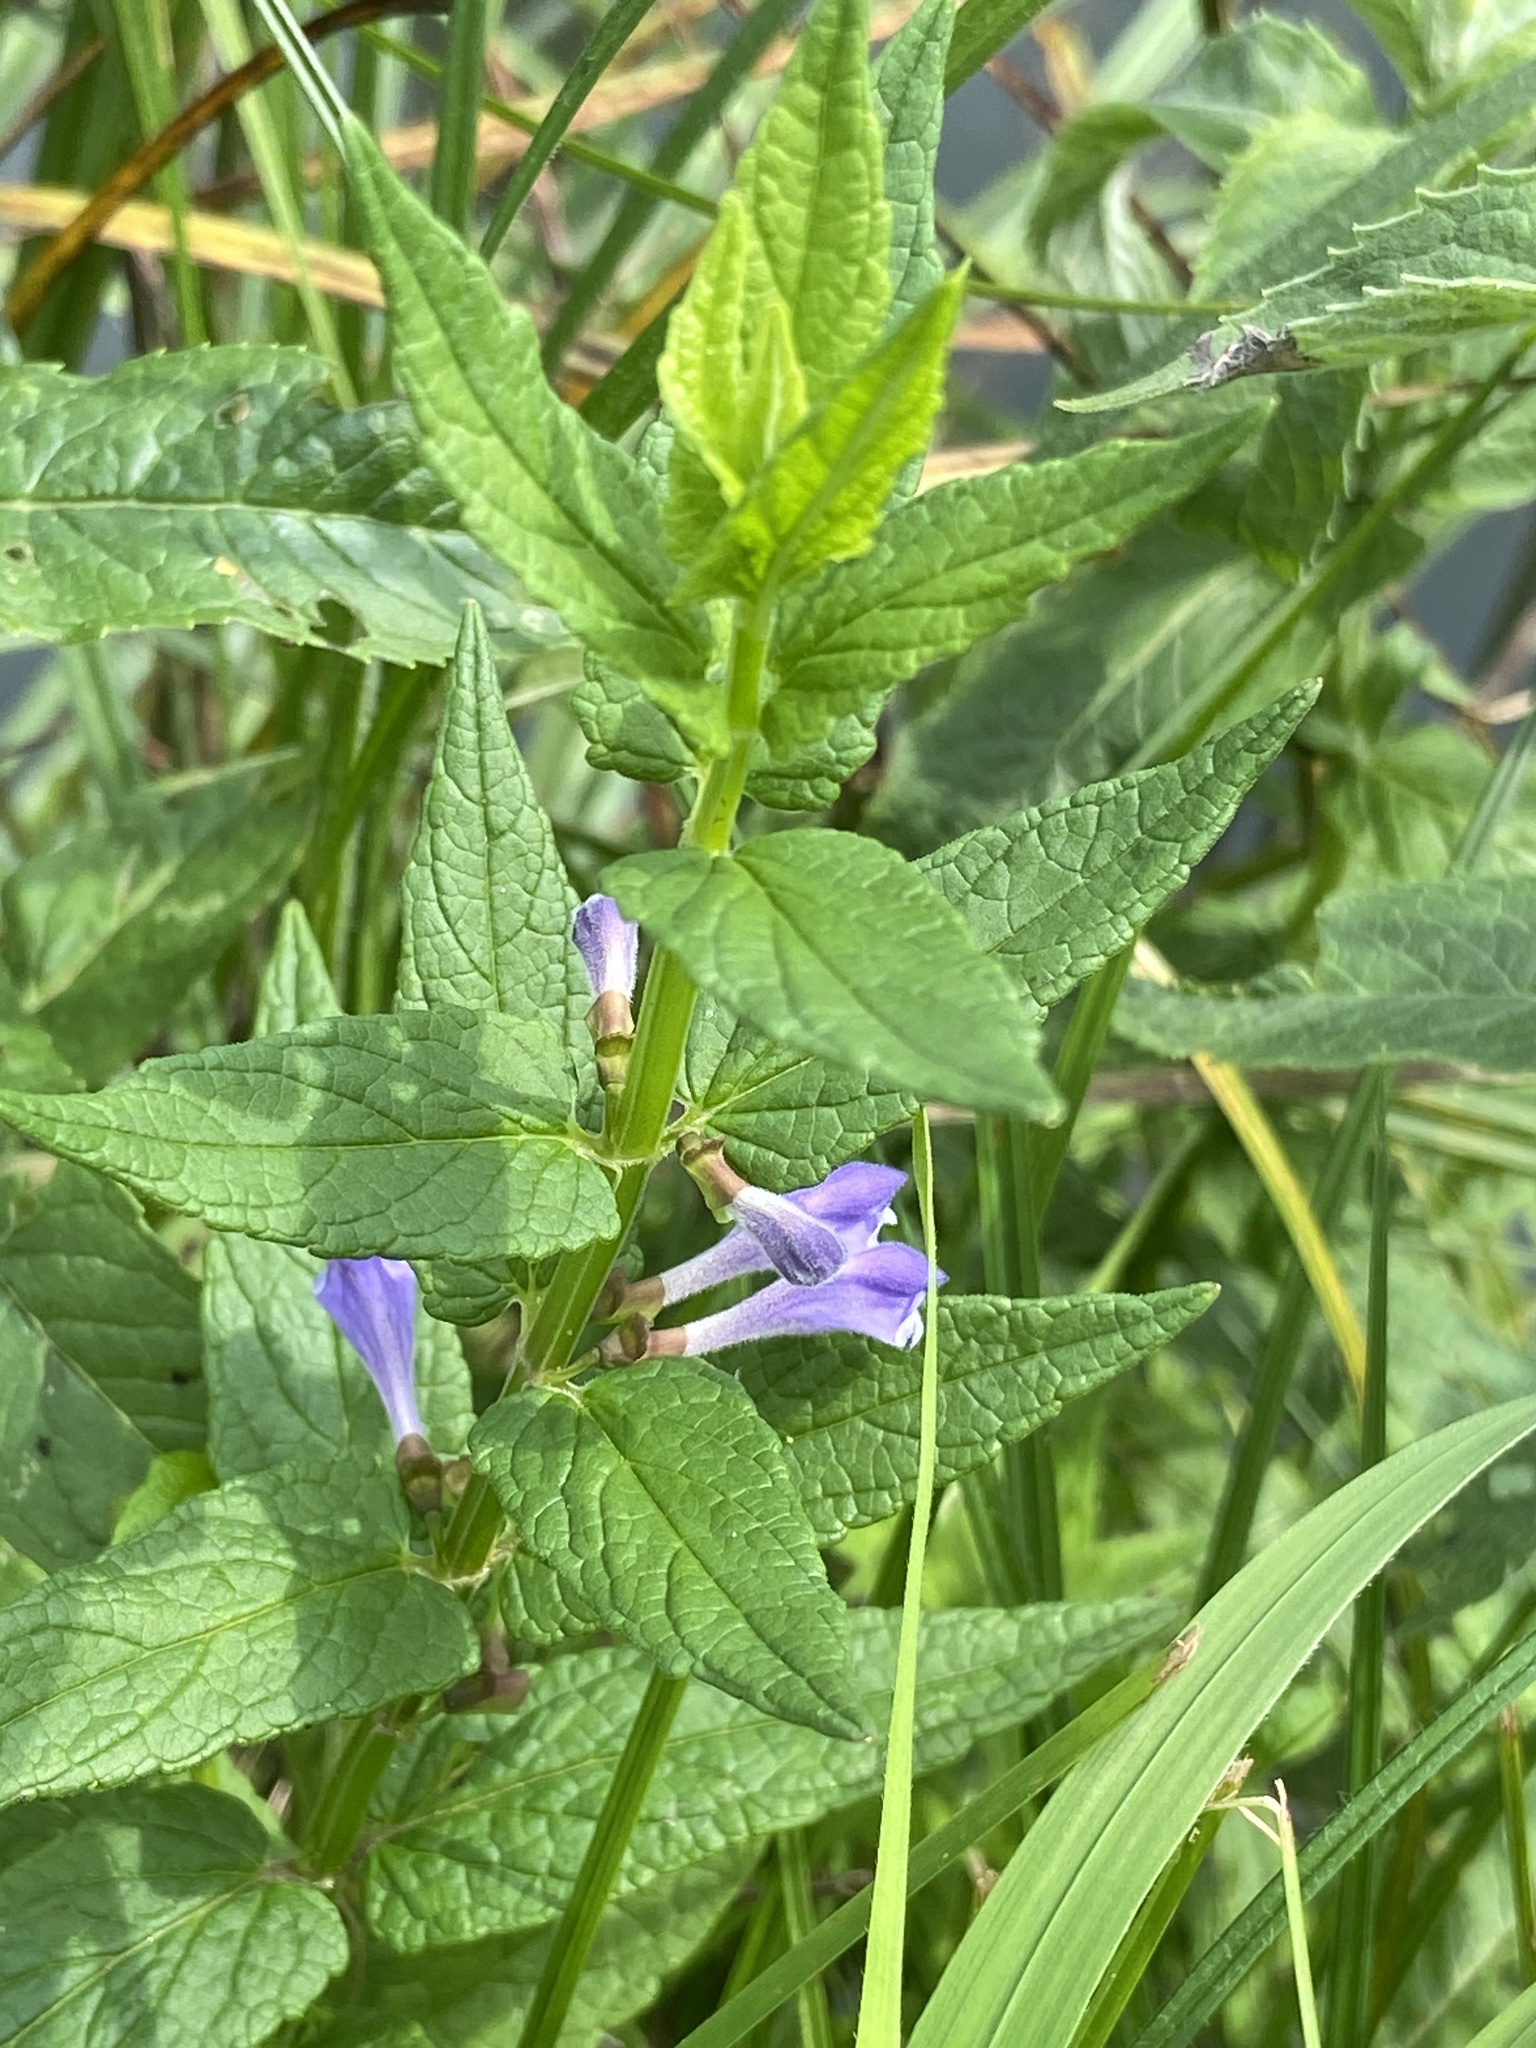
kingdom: Plantae
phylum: Tracheophyta
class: Magnoliopsida
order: Lamiales
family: Lamiaceae
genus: Scutellaria
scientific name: Scutellaria galericulata
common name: Skullcap
